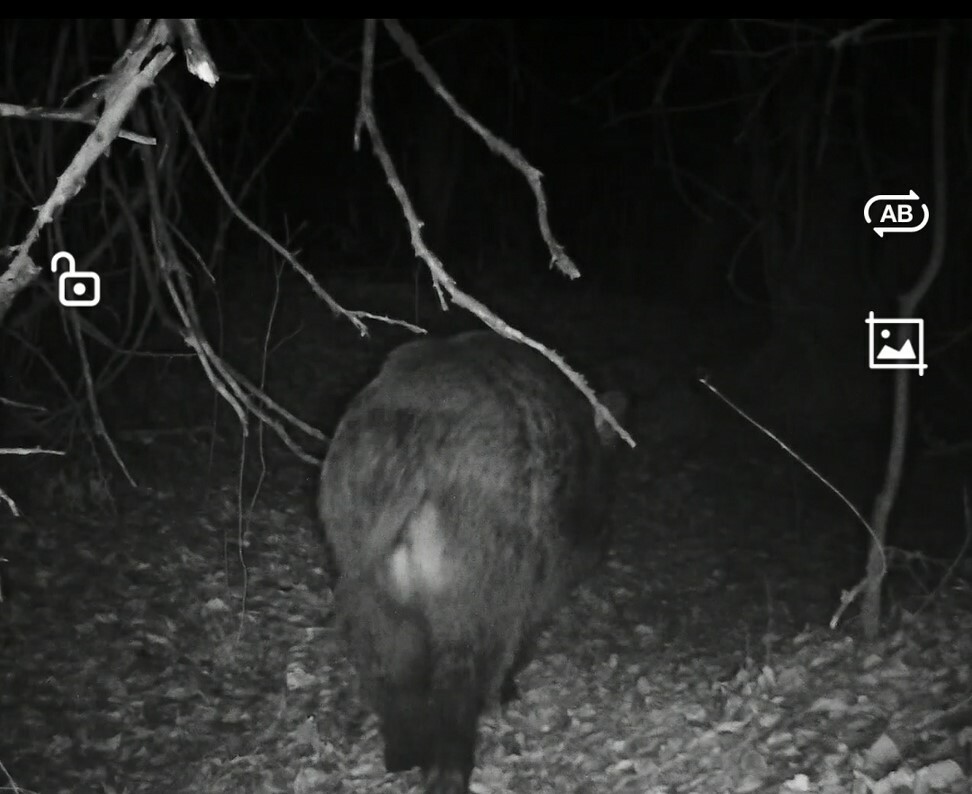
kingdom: Animalia
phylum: Chordata
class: Mammalia
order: Artiodactyla
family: Suidae
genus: Sus
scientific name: Sus scrofa
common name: Wild boar
